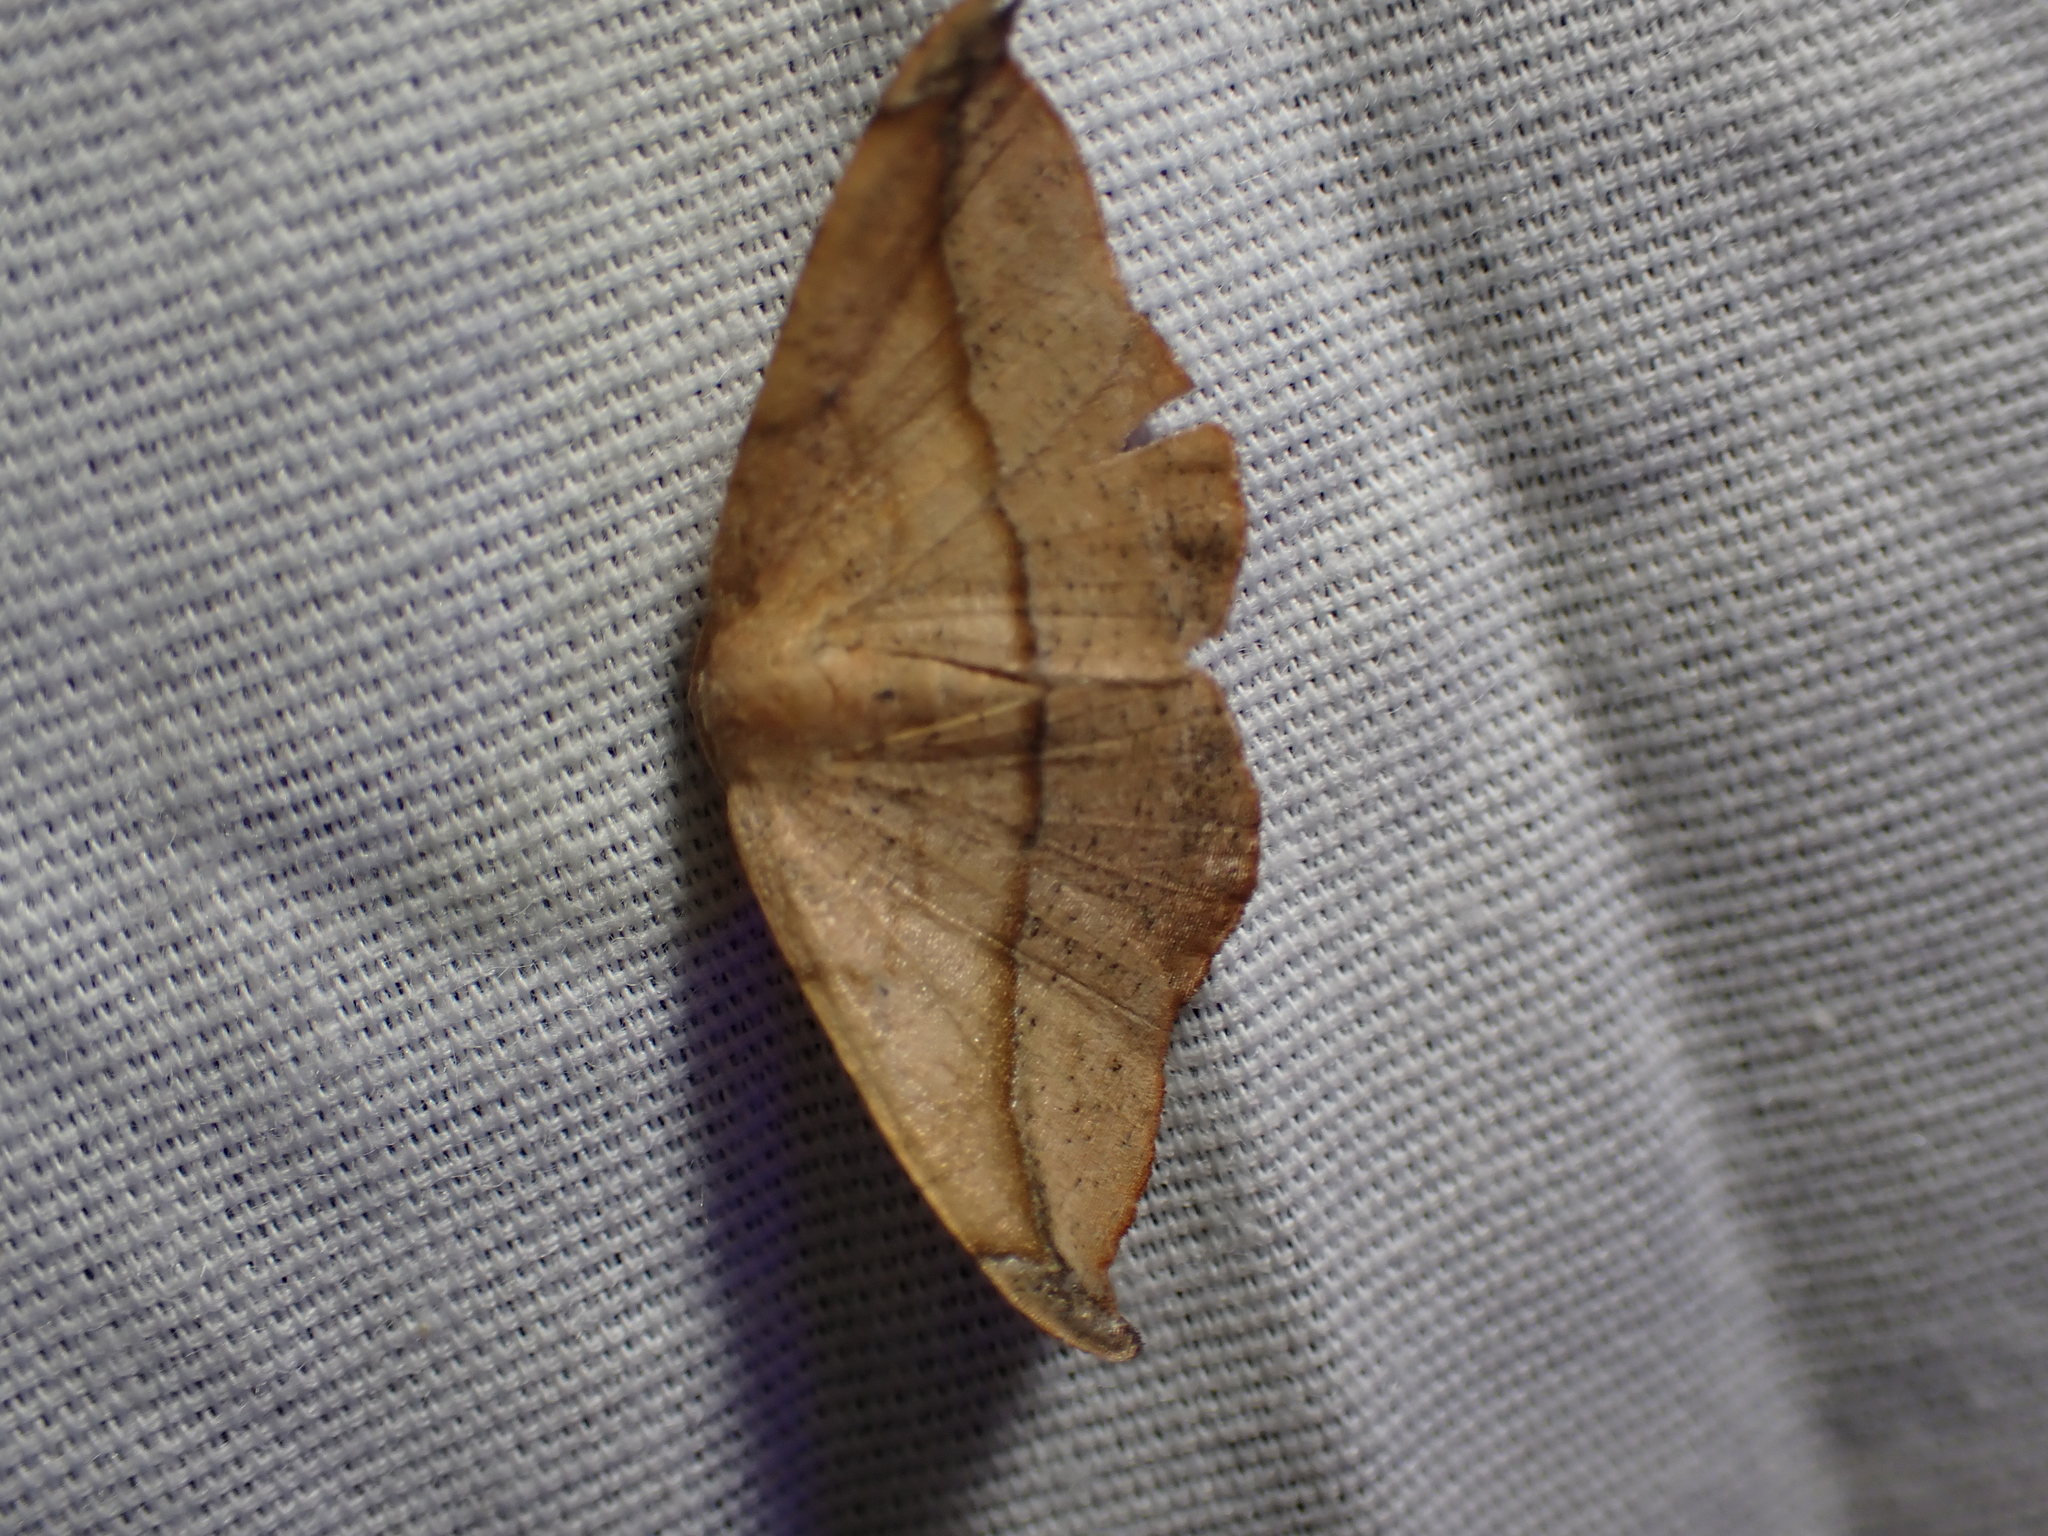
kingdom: Animalia
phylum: Arthropoda
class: Insecta
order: Lepidoptera
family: Geometridae
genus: Patalene
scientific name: Patalene olyzonaria
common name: Juniper geometer moth
